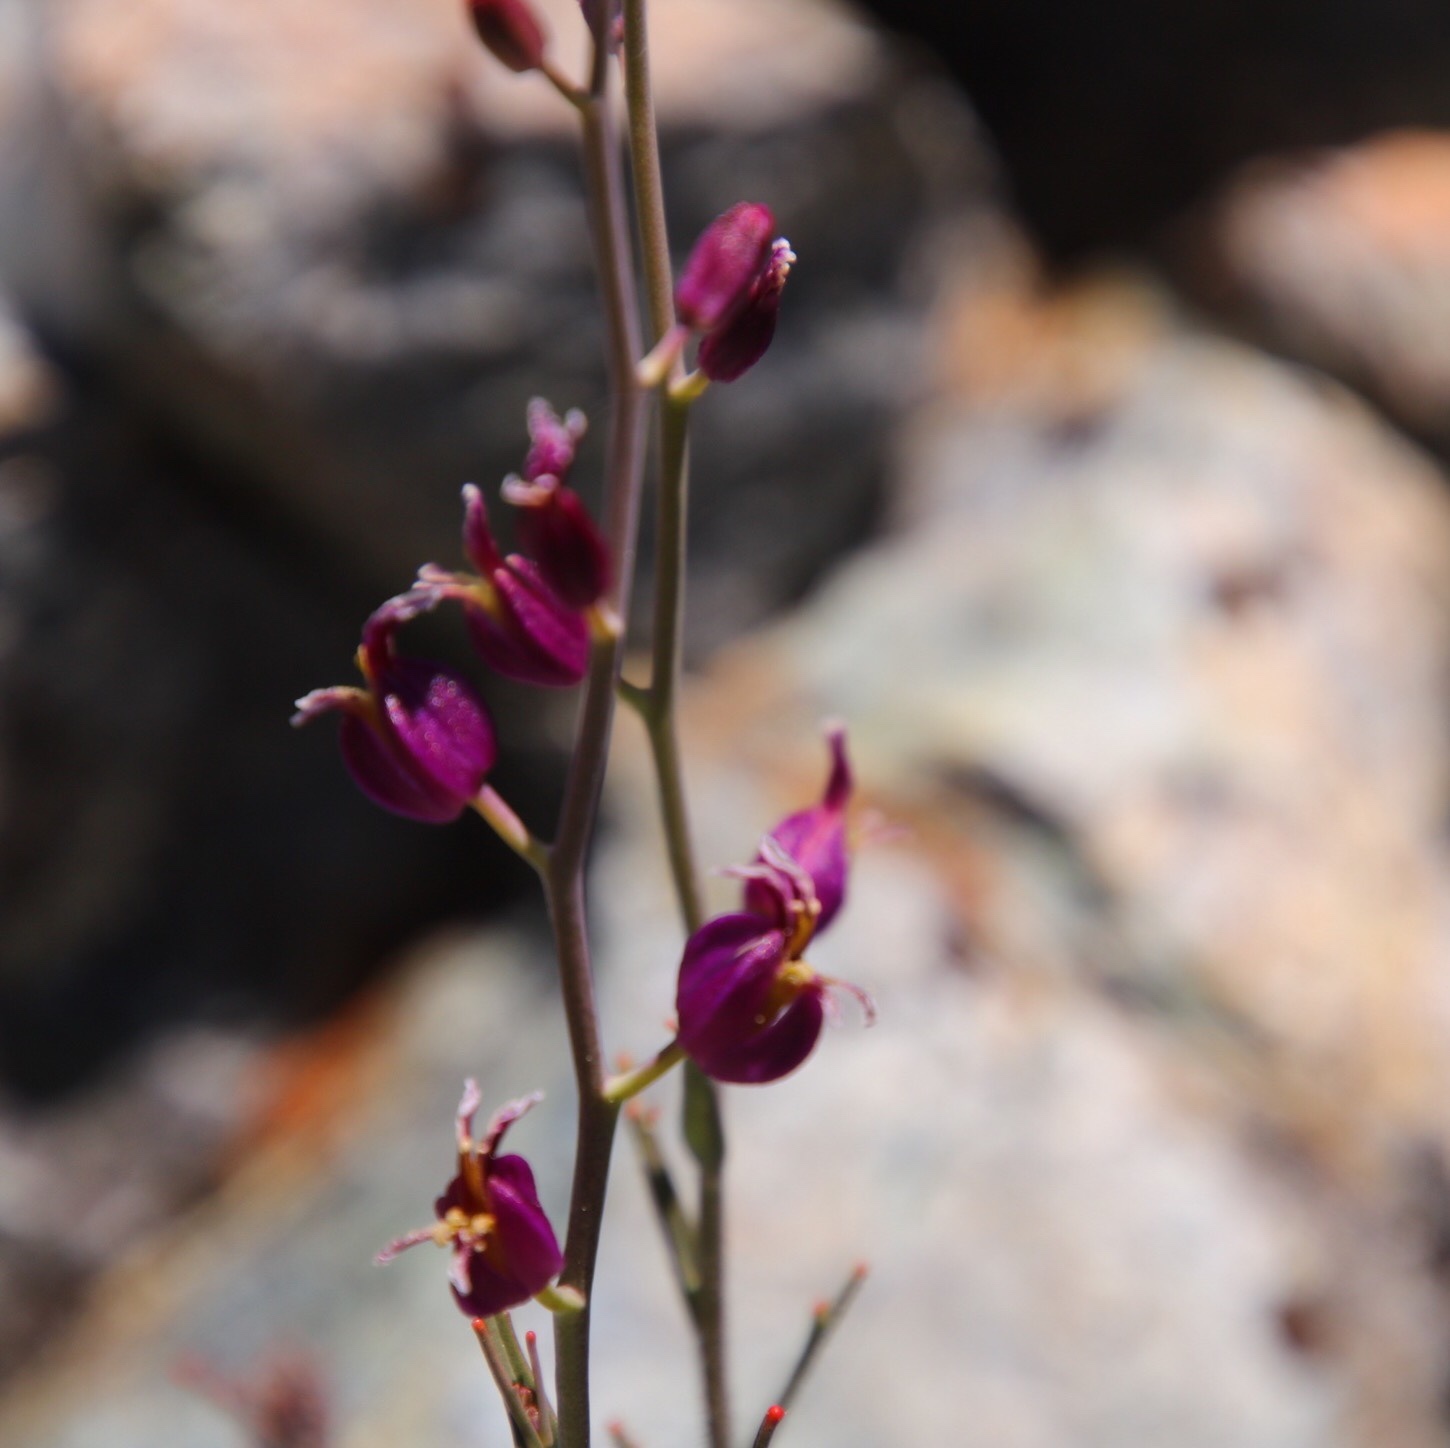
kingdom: Plantae
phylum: Tracheophyta
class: Magnoliopsida
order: Brassicales
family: Brassicaceae
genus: Streptanthus
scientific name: Streptanthus glandulosus
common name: Jewel-flower
